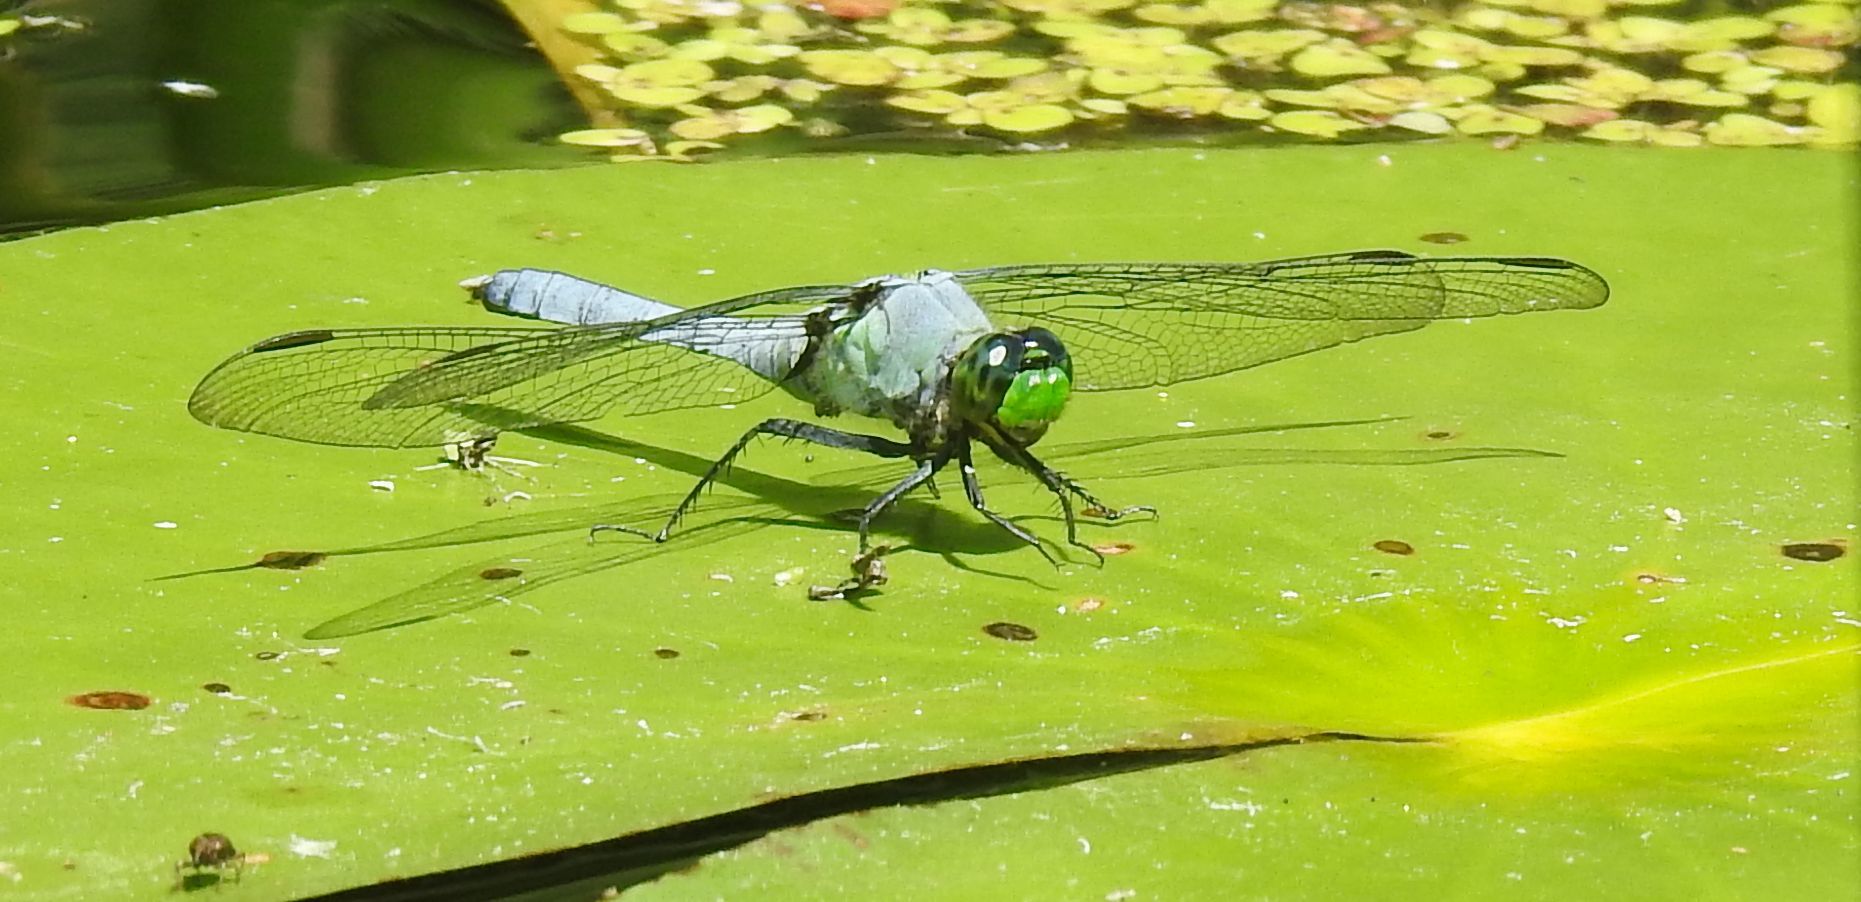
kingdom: Animalia
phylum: Arthropoda
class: Insecta
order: Odonata
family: Libellulidae
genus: Erythemis
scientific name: Erythemis simplicicollis
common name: Eastern pondhawk
